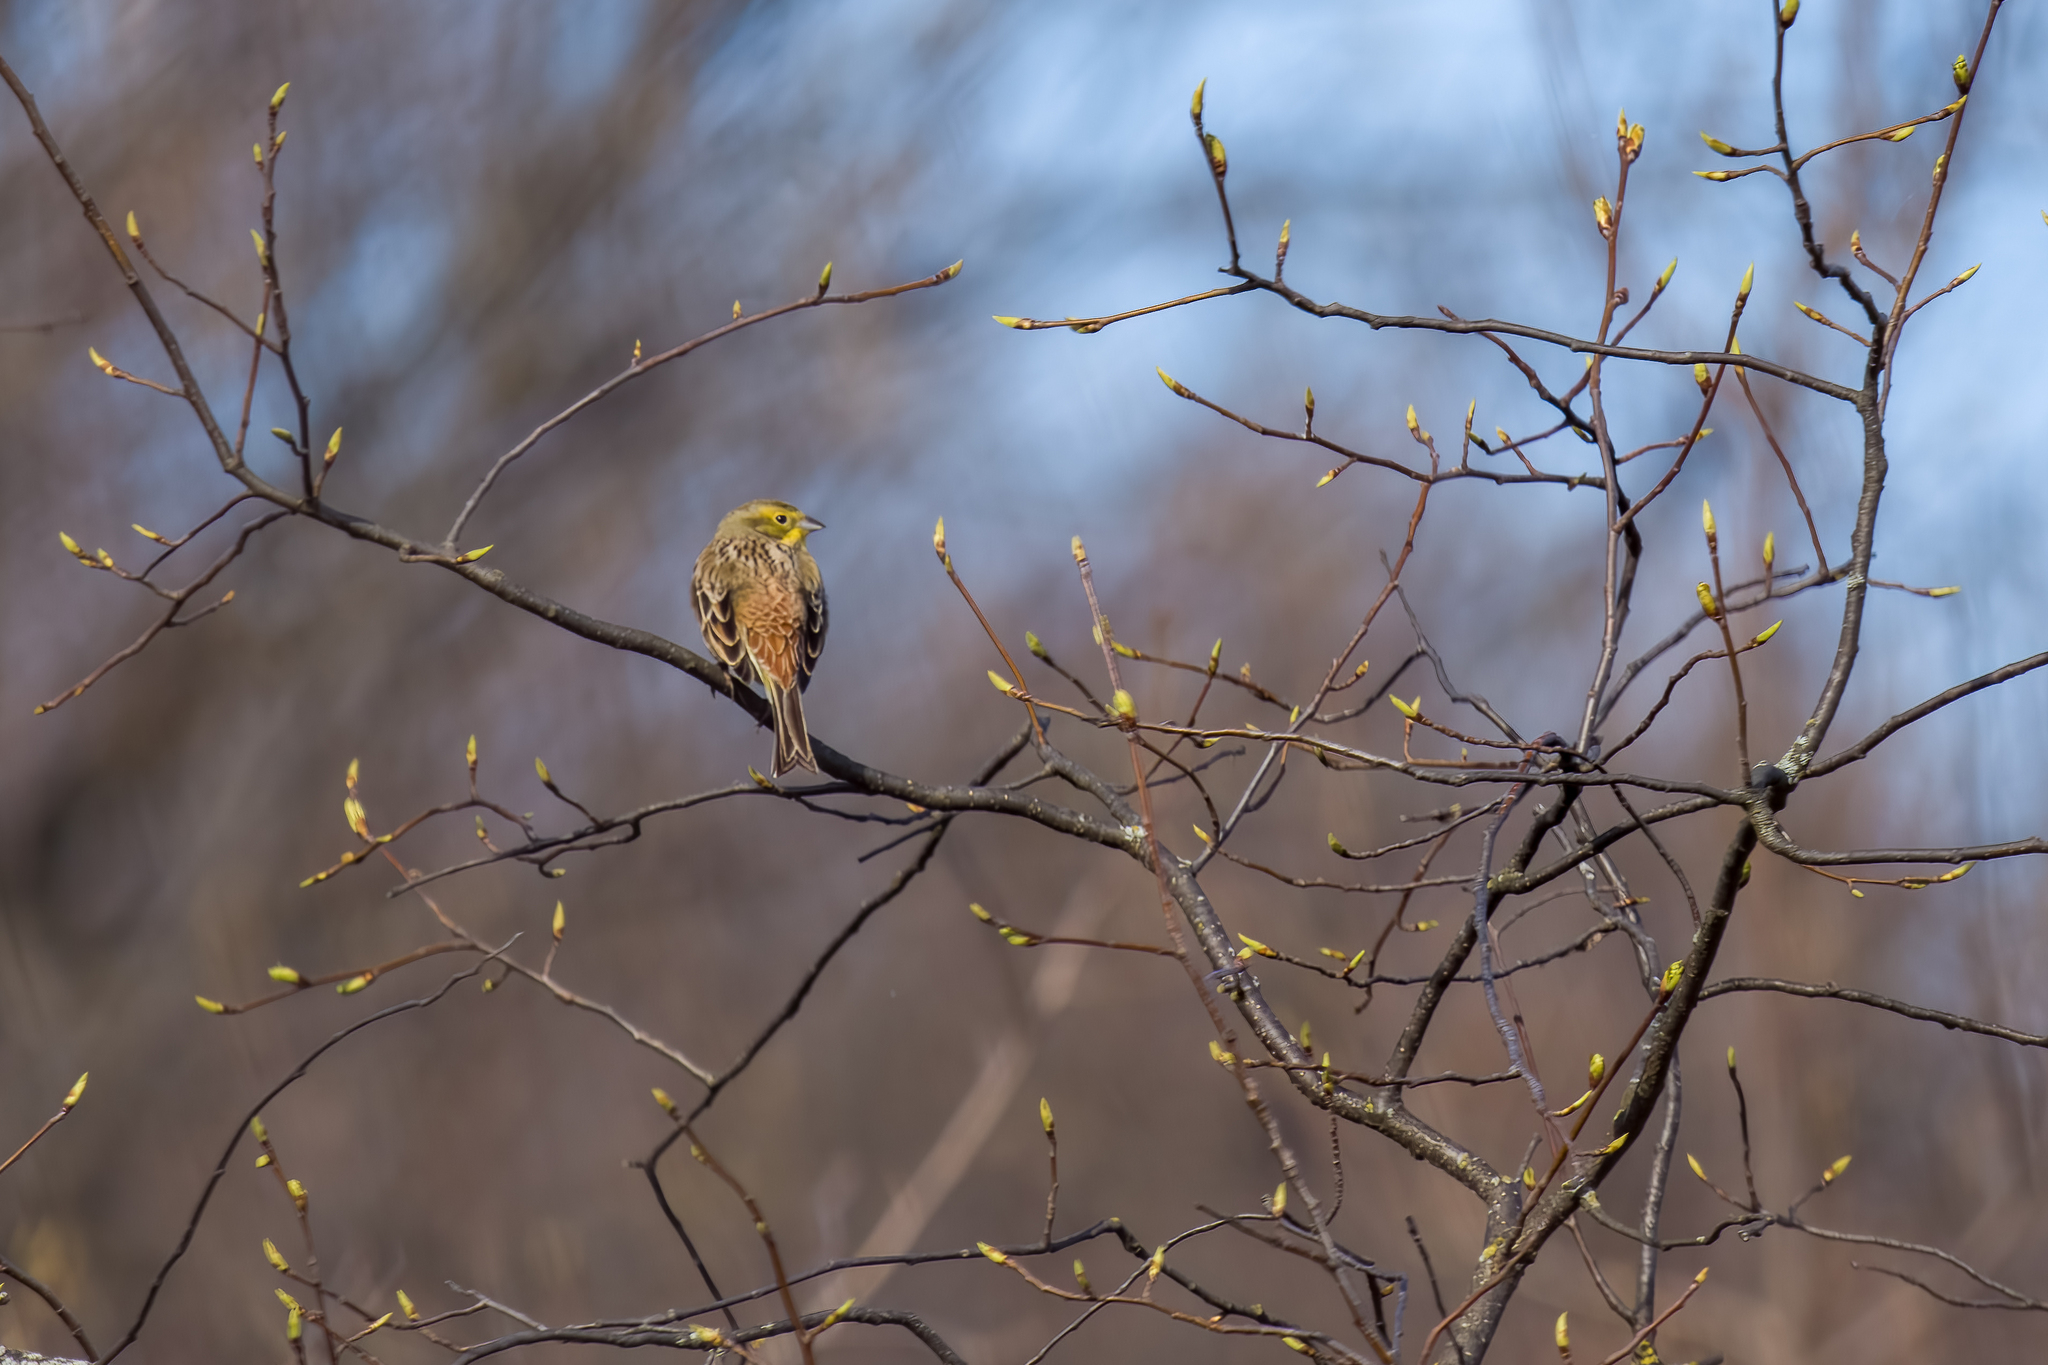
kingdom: Animalia
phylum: Chordata
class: Aves
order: Passeriformes
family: Emberizidae
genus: Emberiza
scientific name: Emberiza citrinella
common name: Yellowhammer
